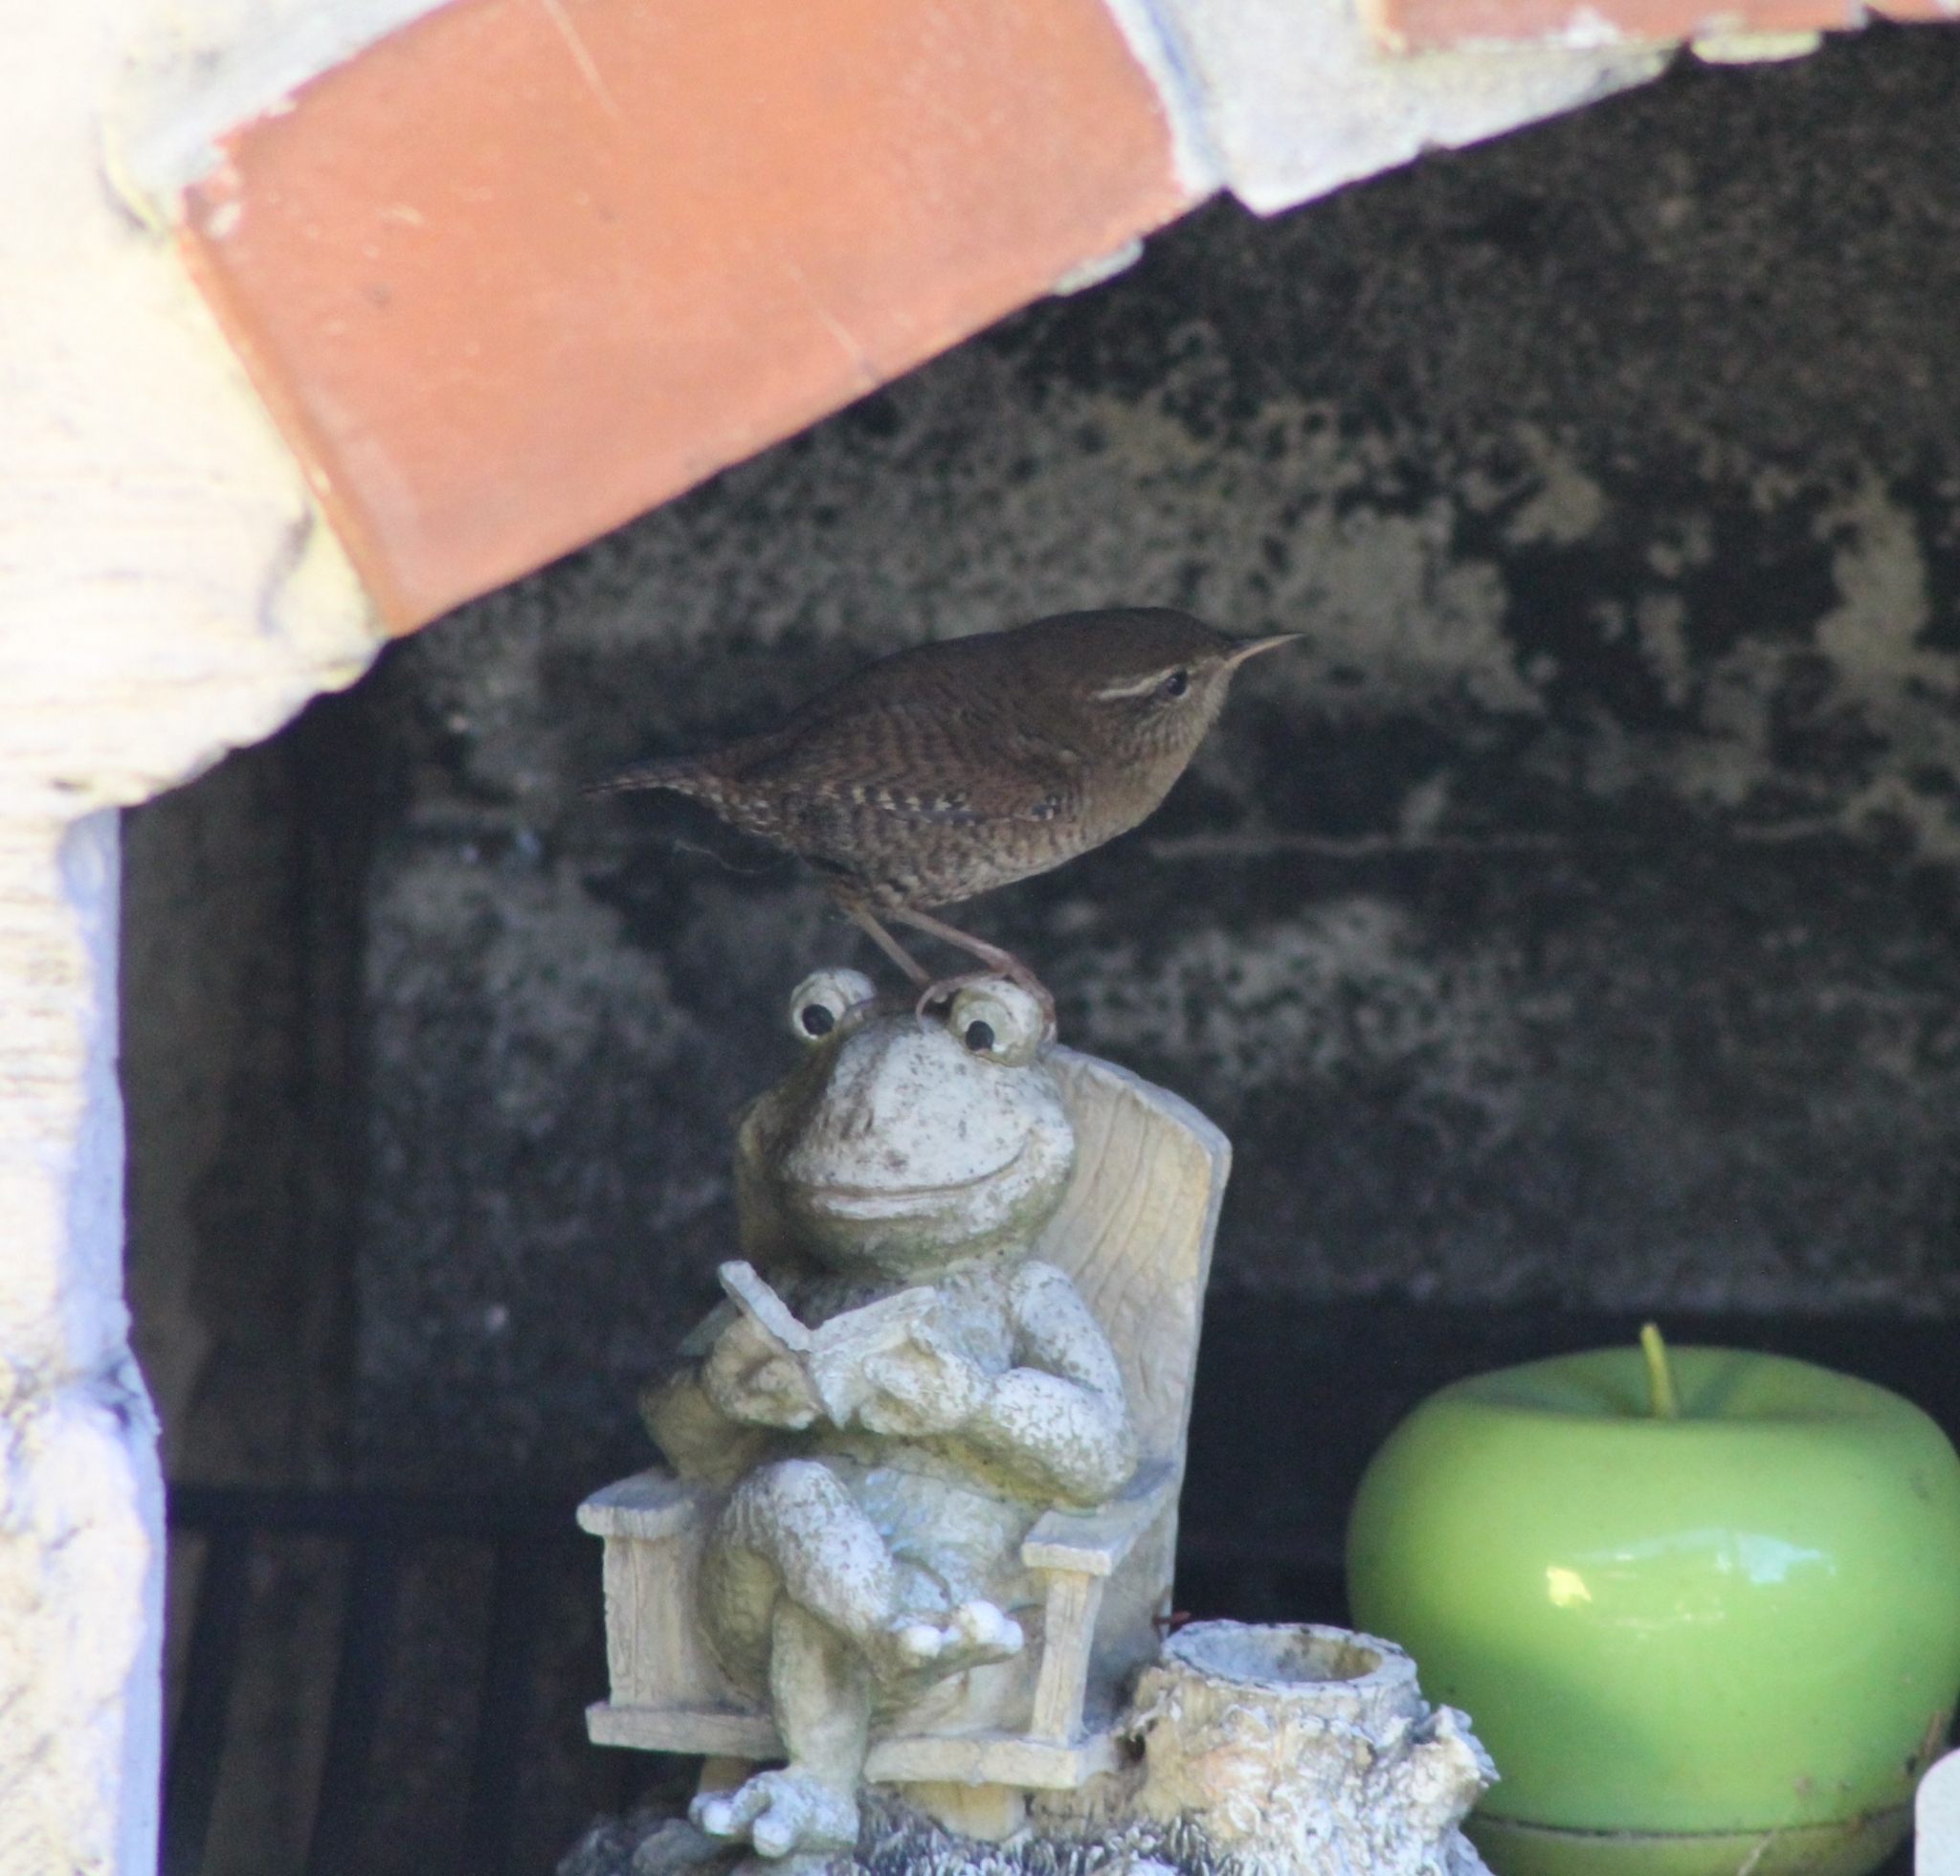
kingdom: Animalia
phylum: Chordata
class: Aves
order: Passeriformes
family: Troglodytidae
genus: Troglodytes
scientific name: Troglodytes troglodytes
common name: Eurasian wren
